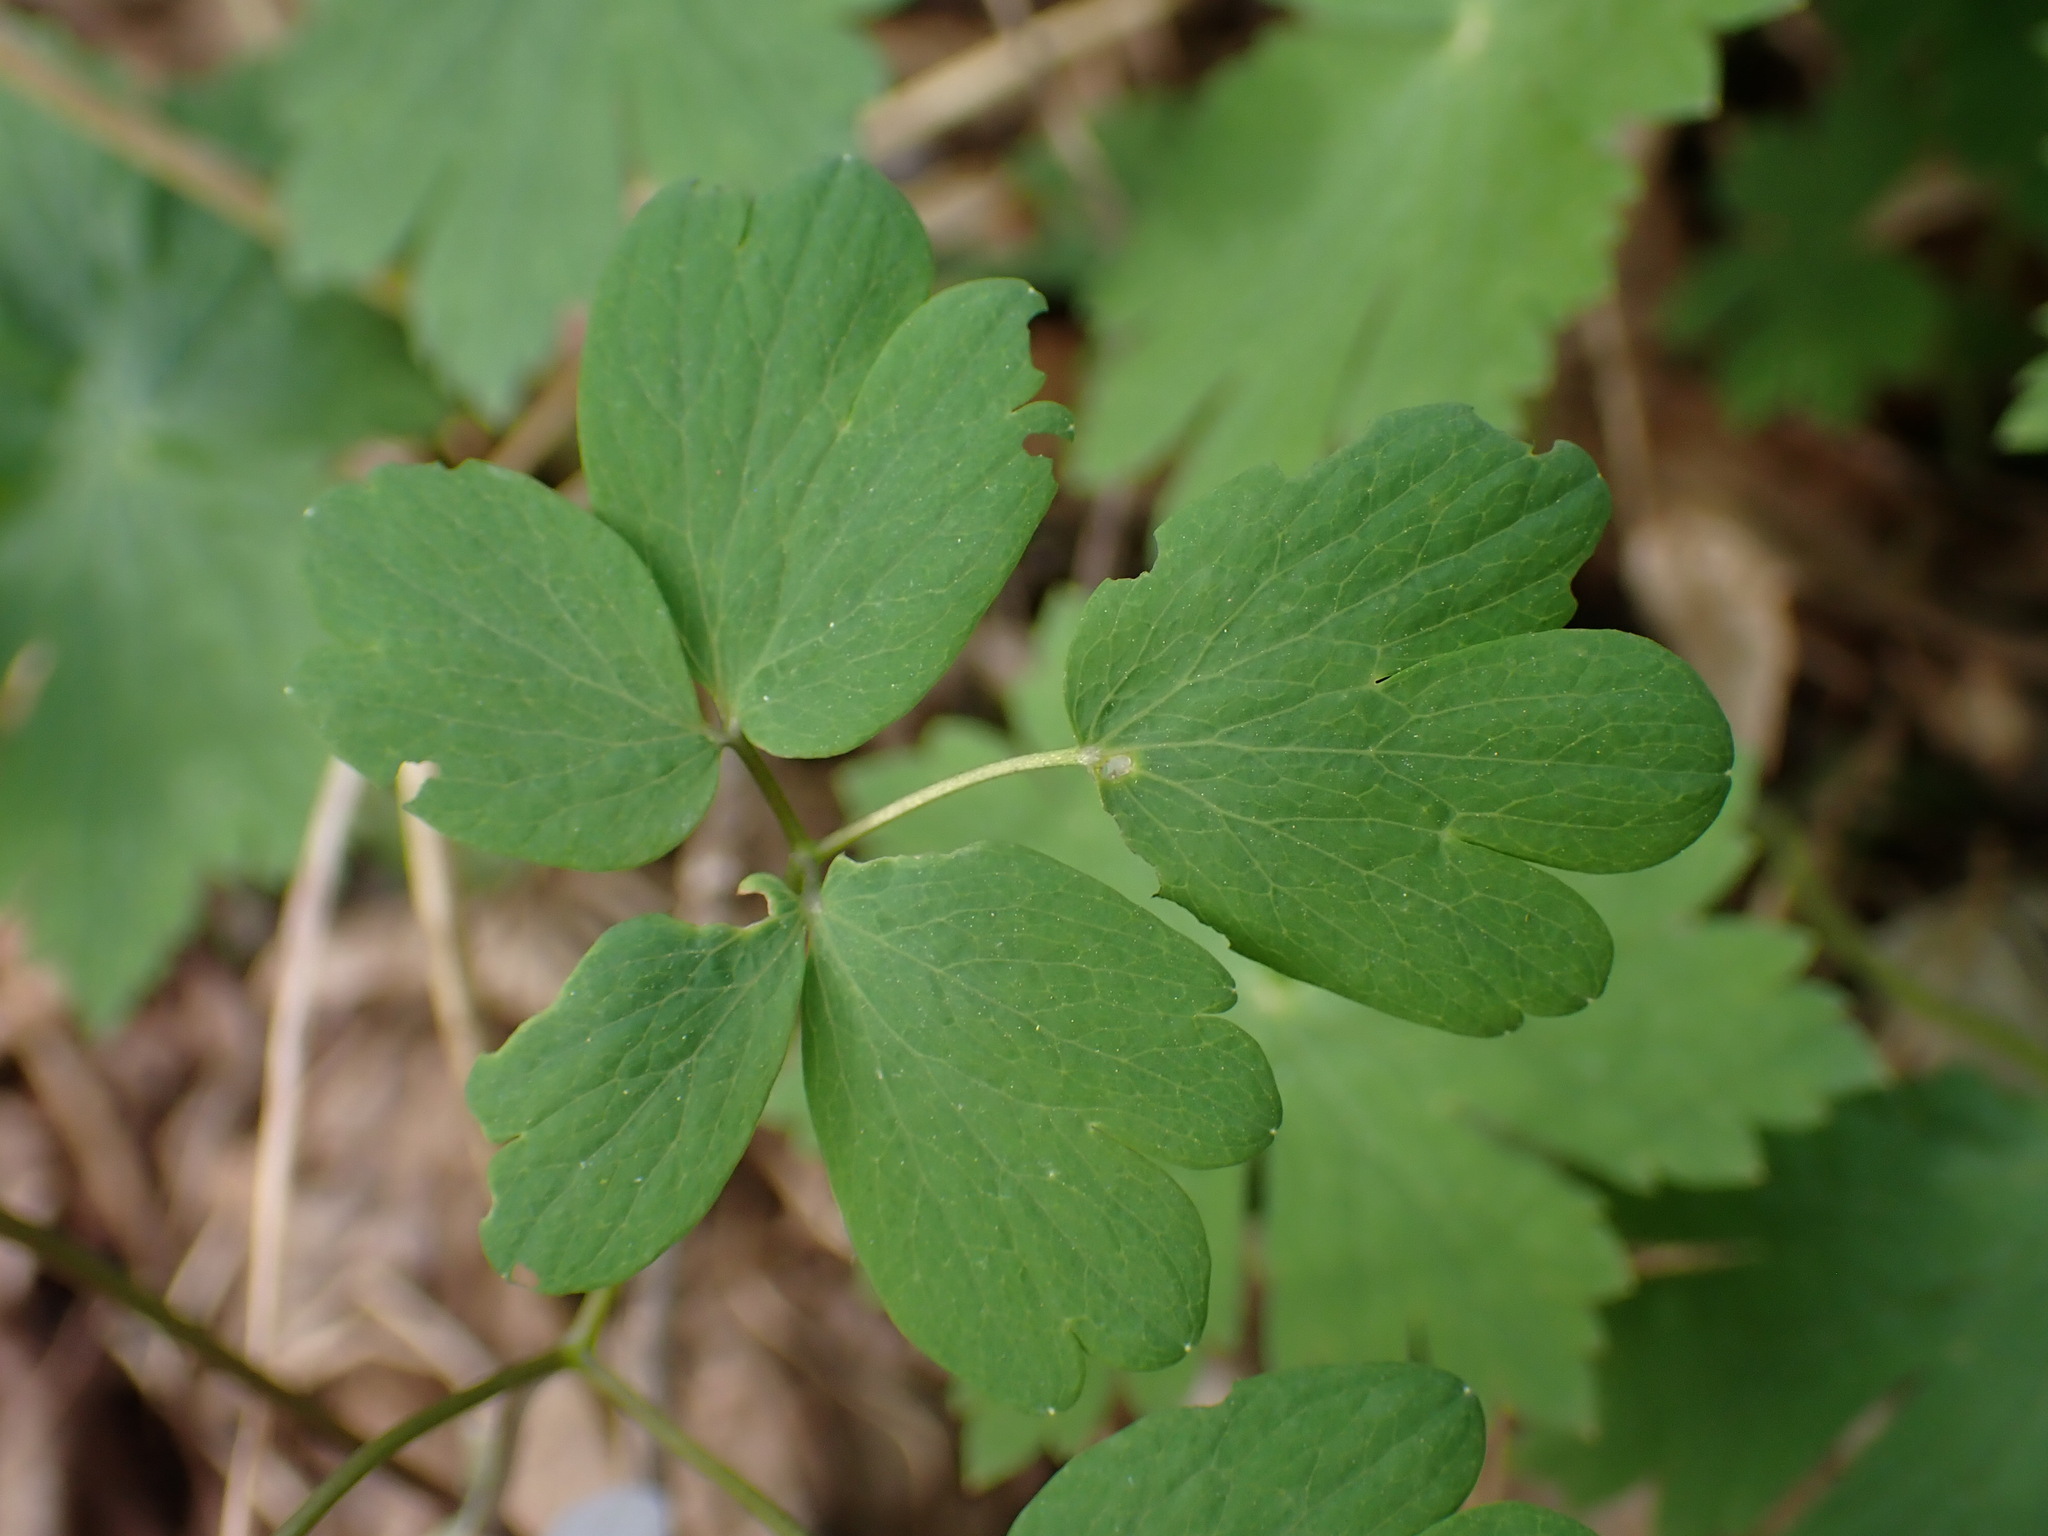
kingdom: Plantae
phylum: Tracheophyta
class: Magnoliopsida
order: Ranunculales
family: Ranunculaceae
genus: Isopyrum
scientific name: Isopyrum thalictroides
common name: Isopyrum
